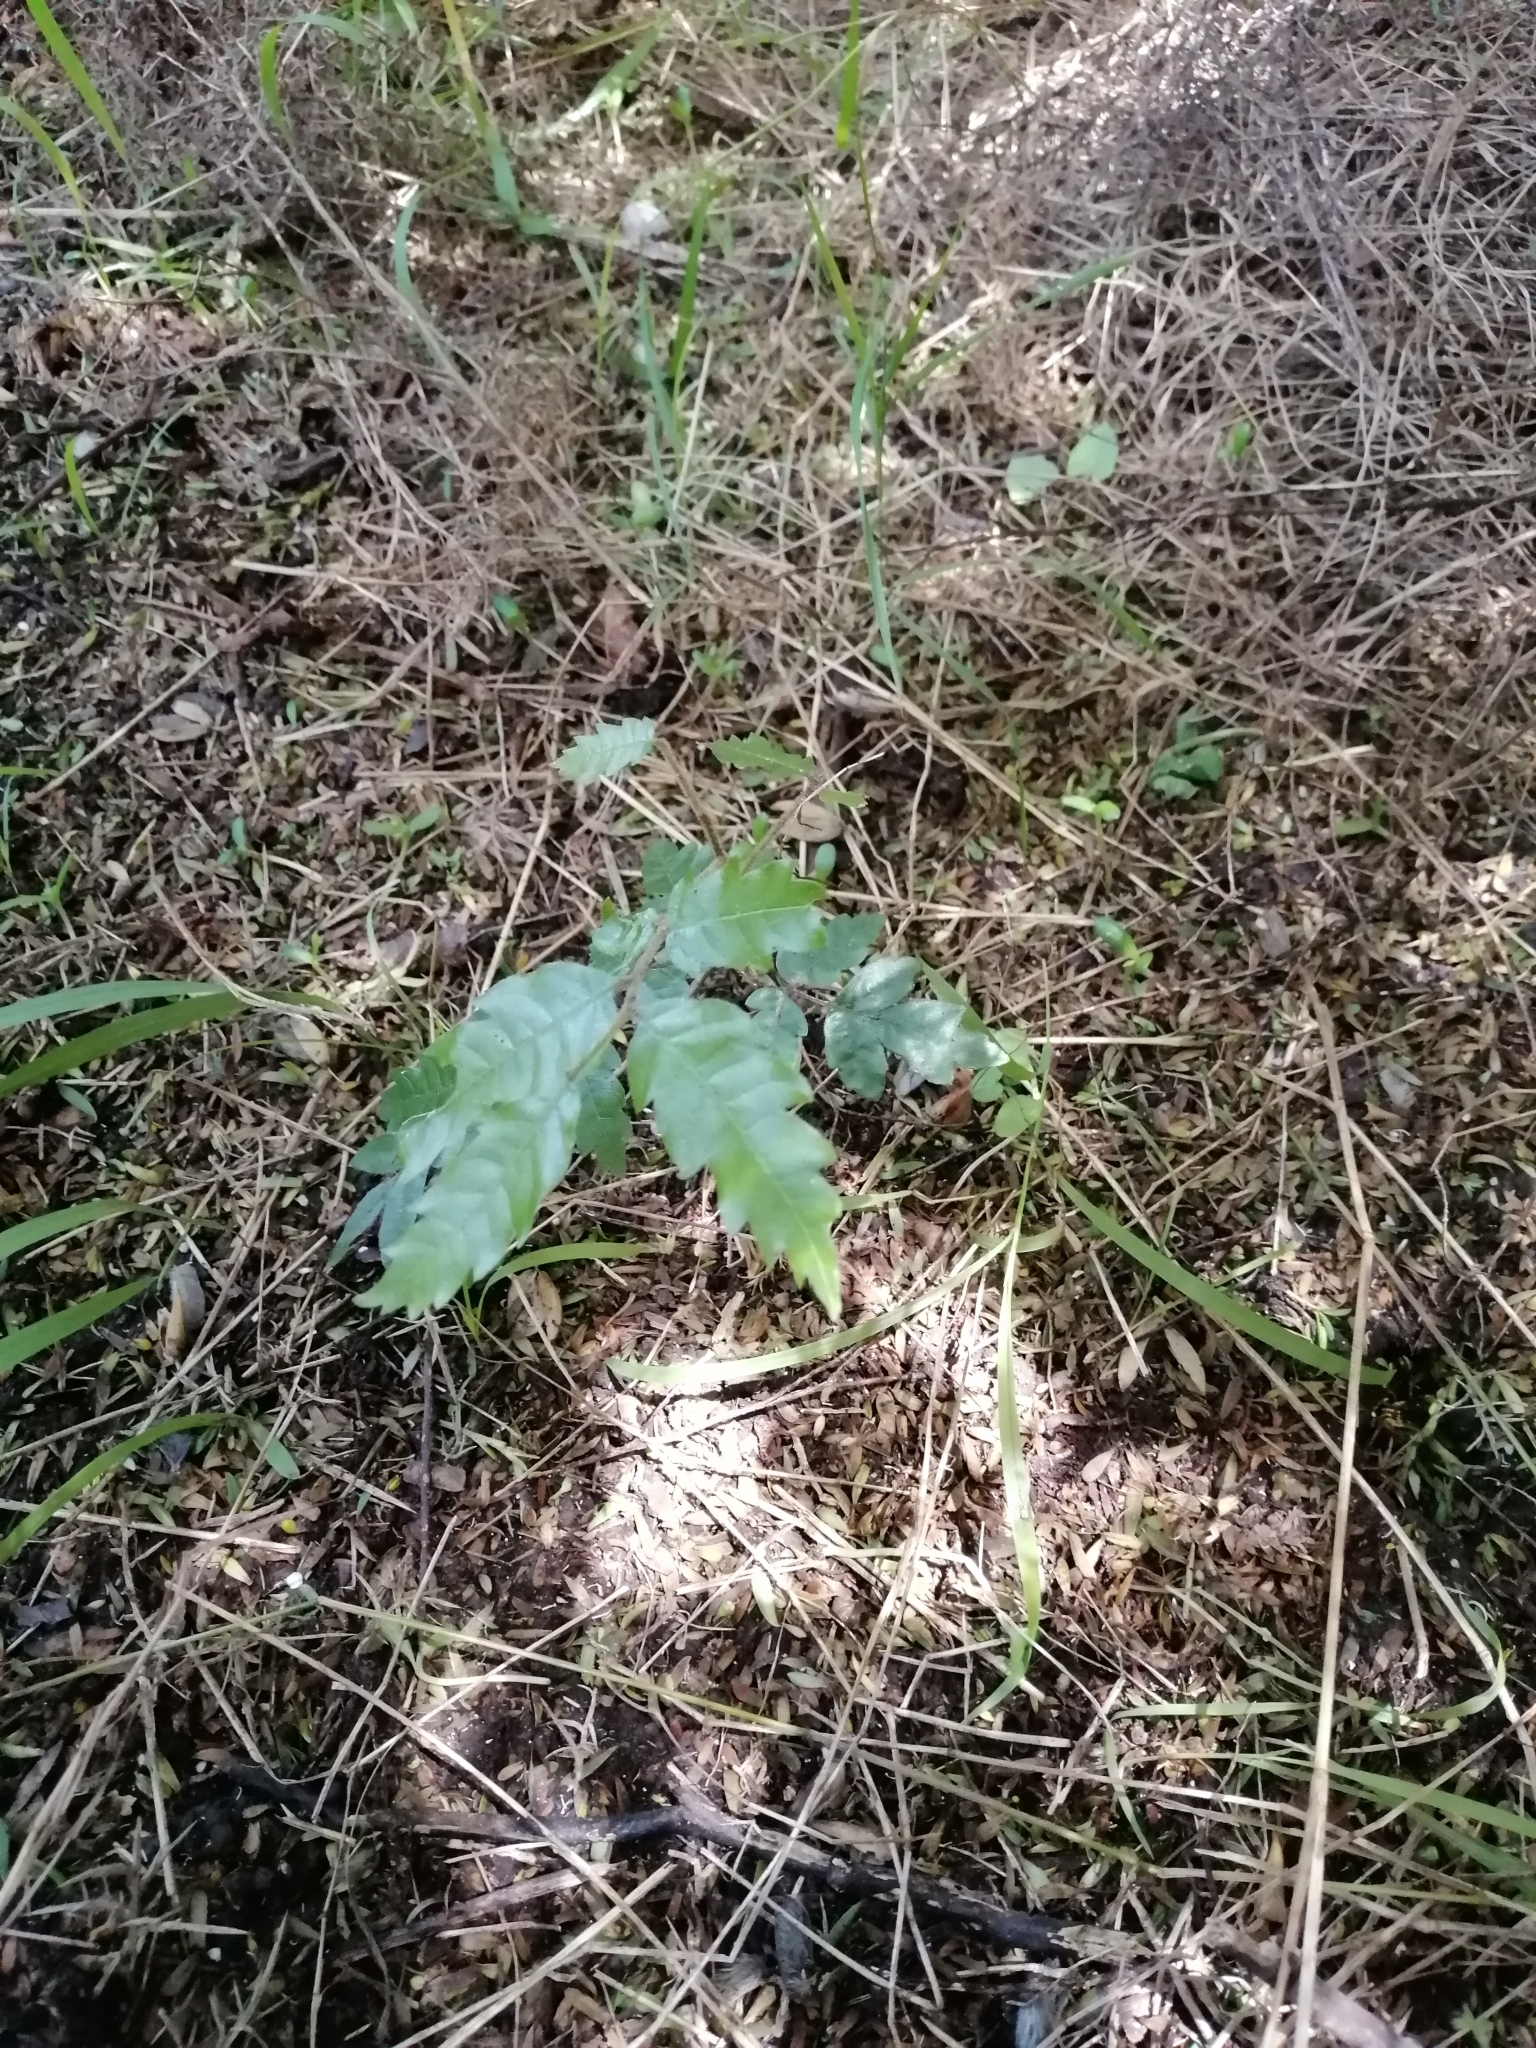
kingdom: Plantae
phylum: Tracheophyta
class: Magnoliopsida
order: Sapindales
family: Sapindaceae
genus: Alectryon
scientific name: Alectryon excelsus
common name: Three kings titoki
